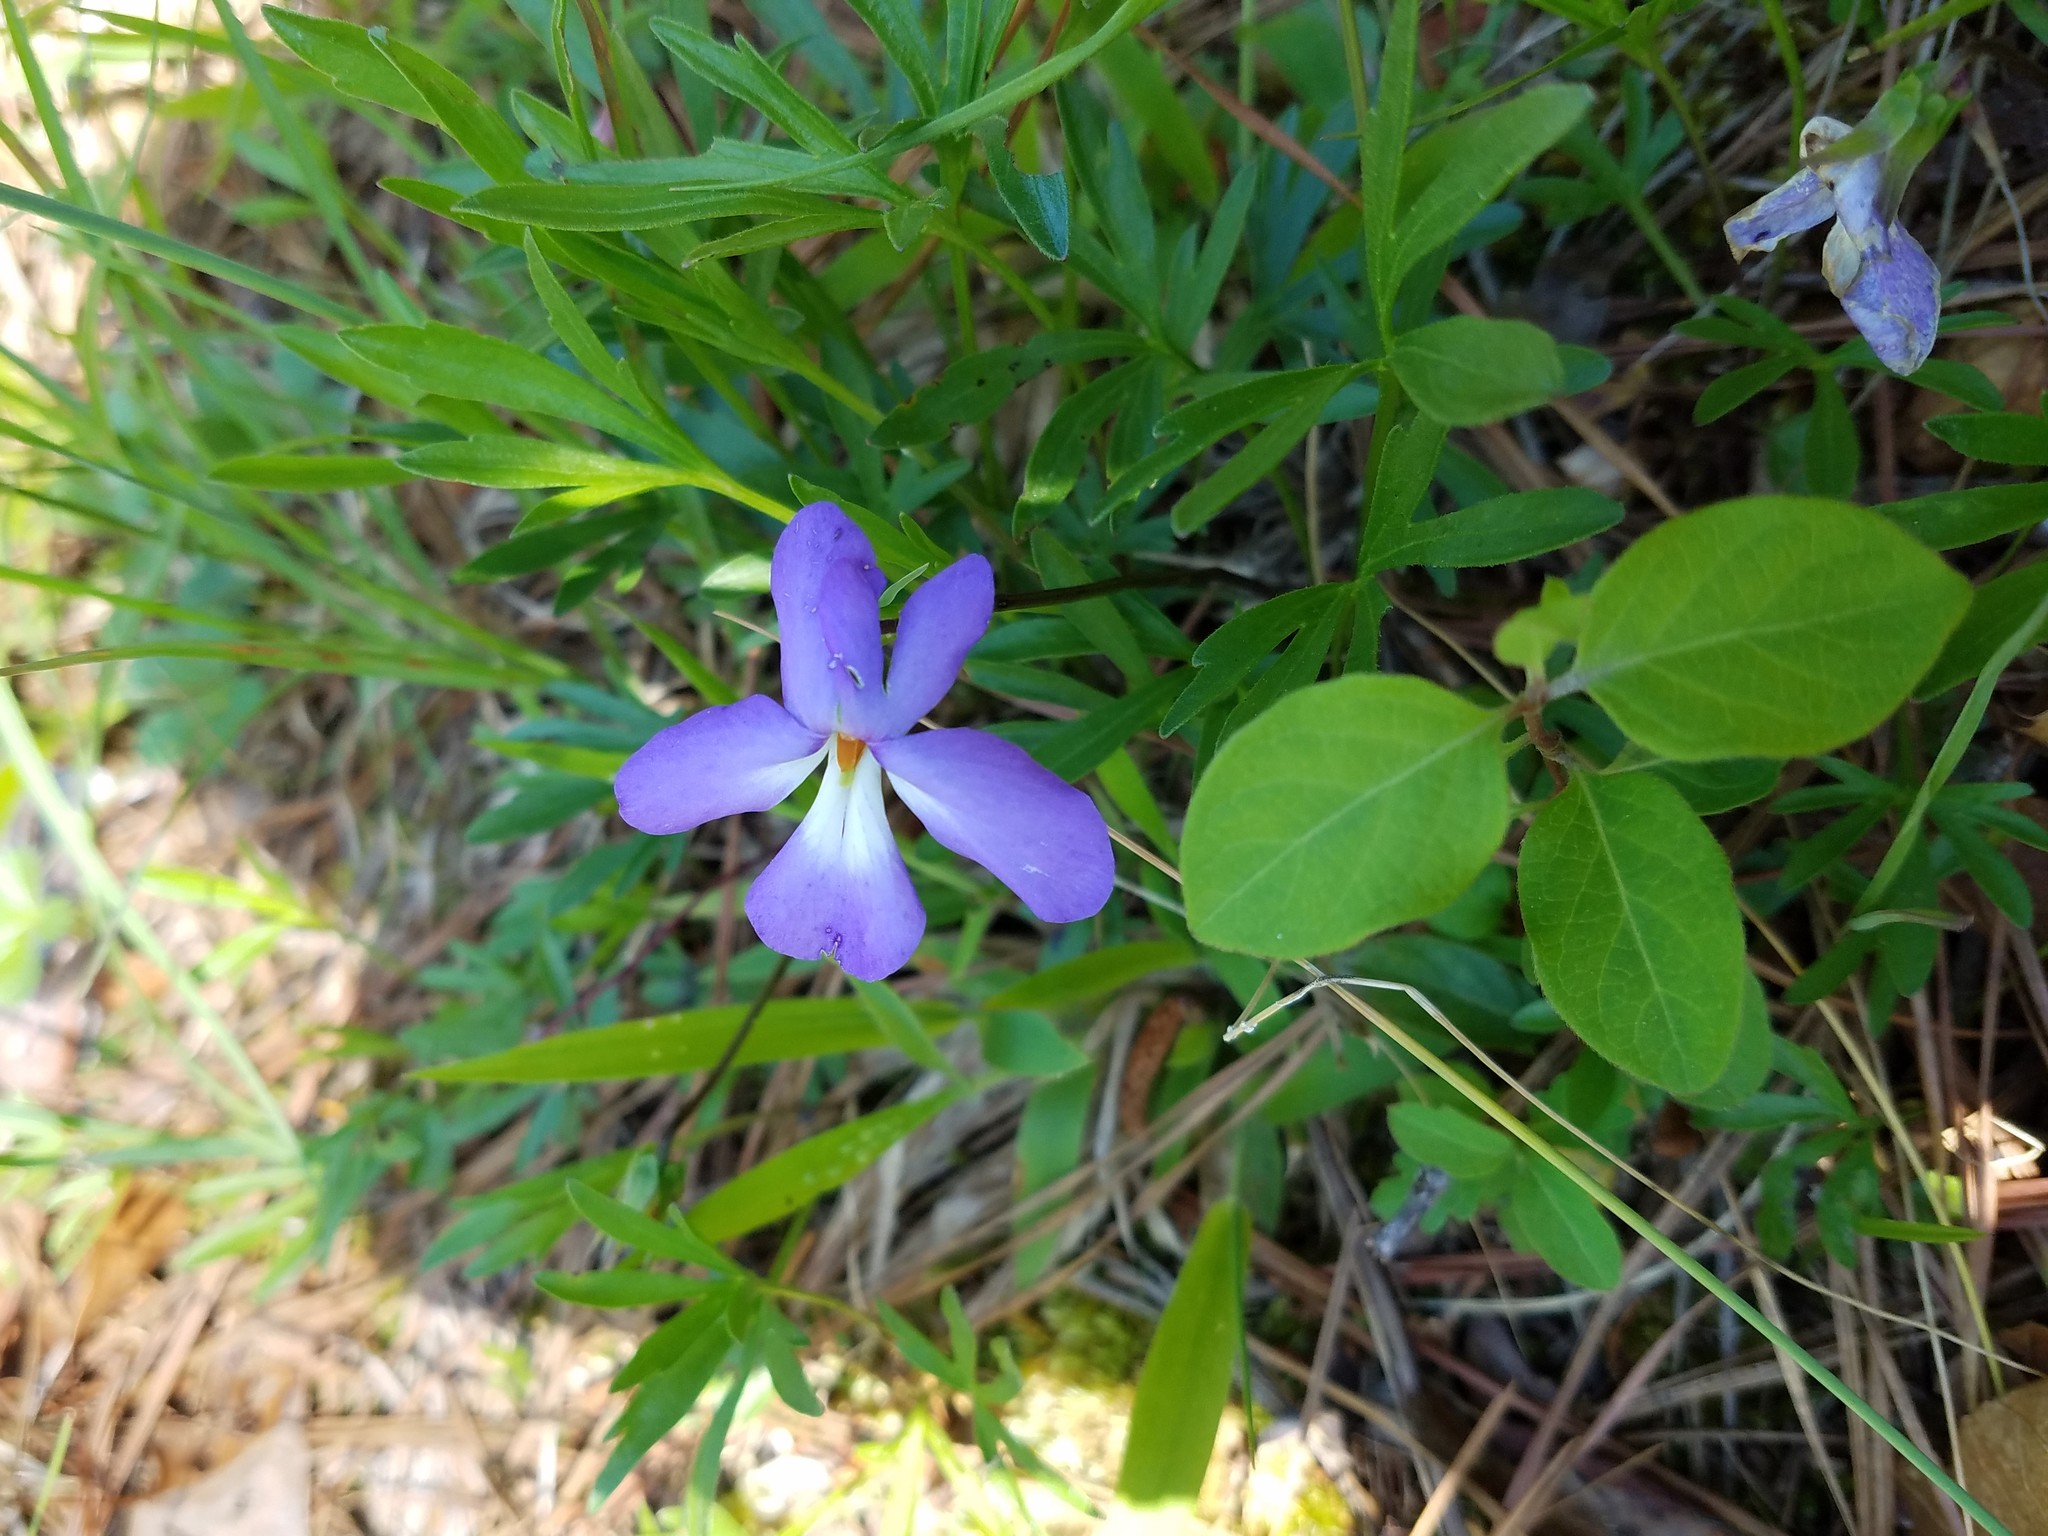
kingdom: Plantae
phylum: Tracheophyta
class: Magnoliopsida
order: Malpighiales
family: Violaceae
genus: Viola
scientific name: Viola pedata
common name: Pansy violet
